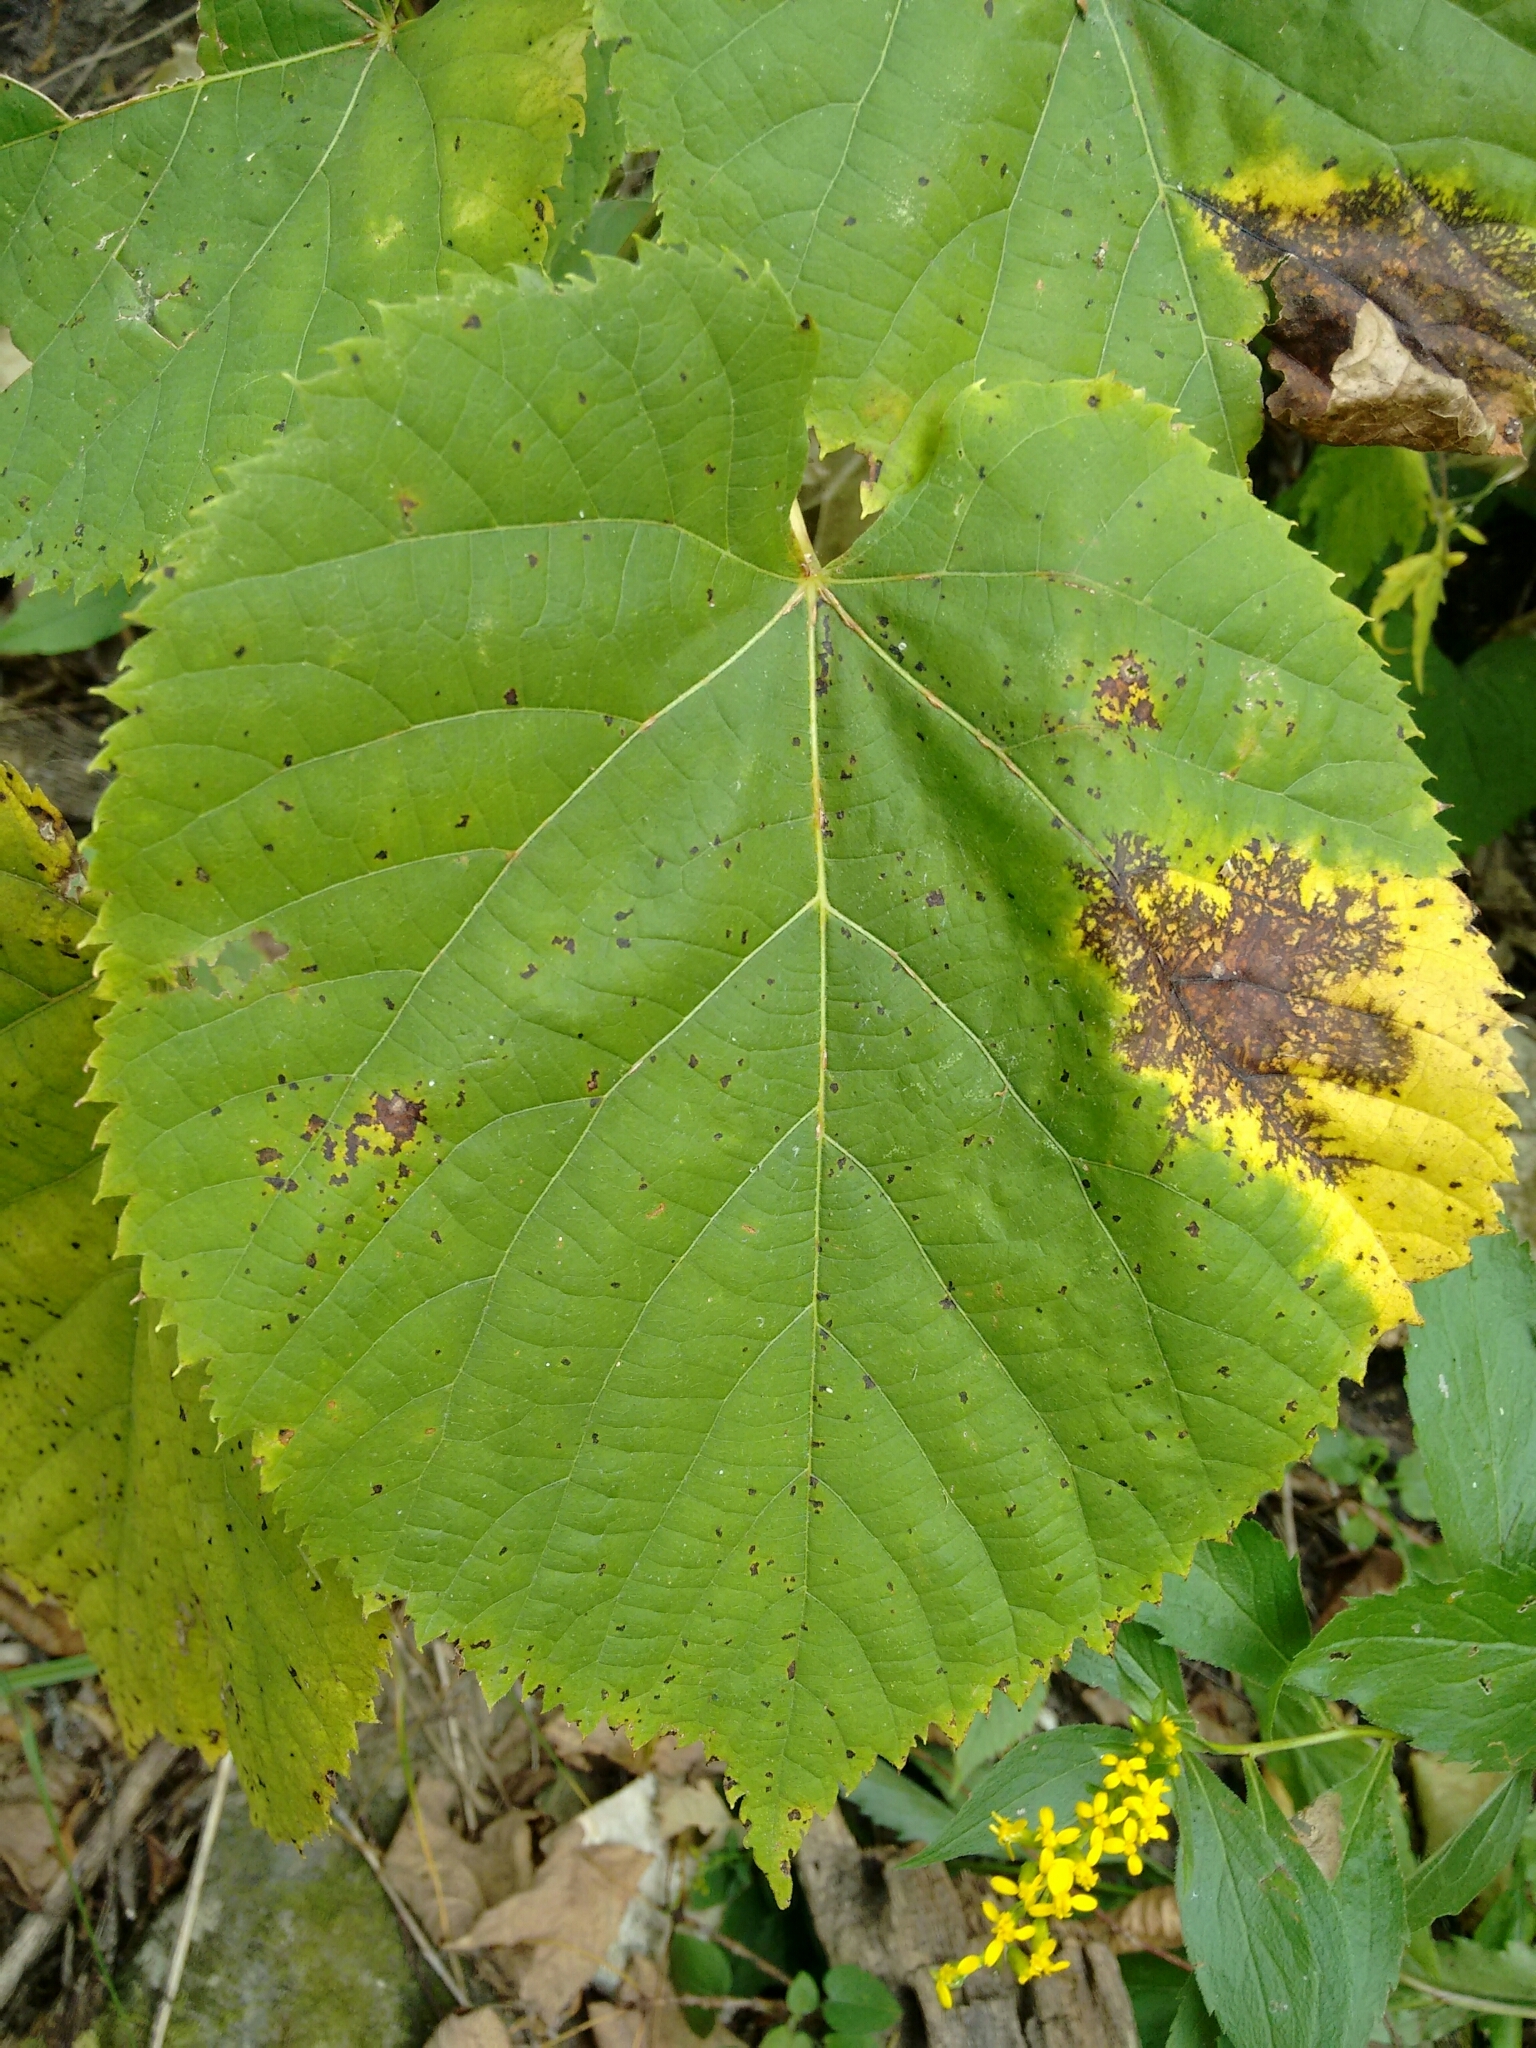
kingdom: Plantae
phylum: Tracheophyta
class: Magnoliopsida
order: Malvales
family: Malvaceae
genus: Tilia
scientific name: Tilia americana
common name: Basswood
